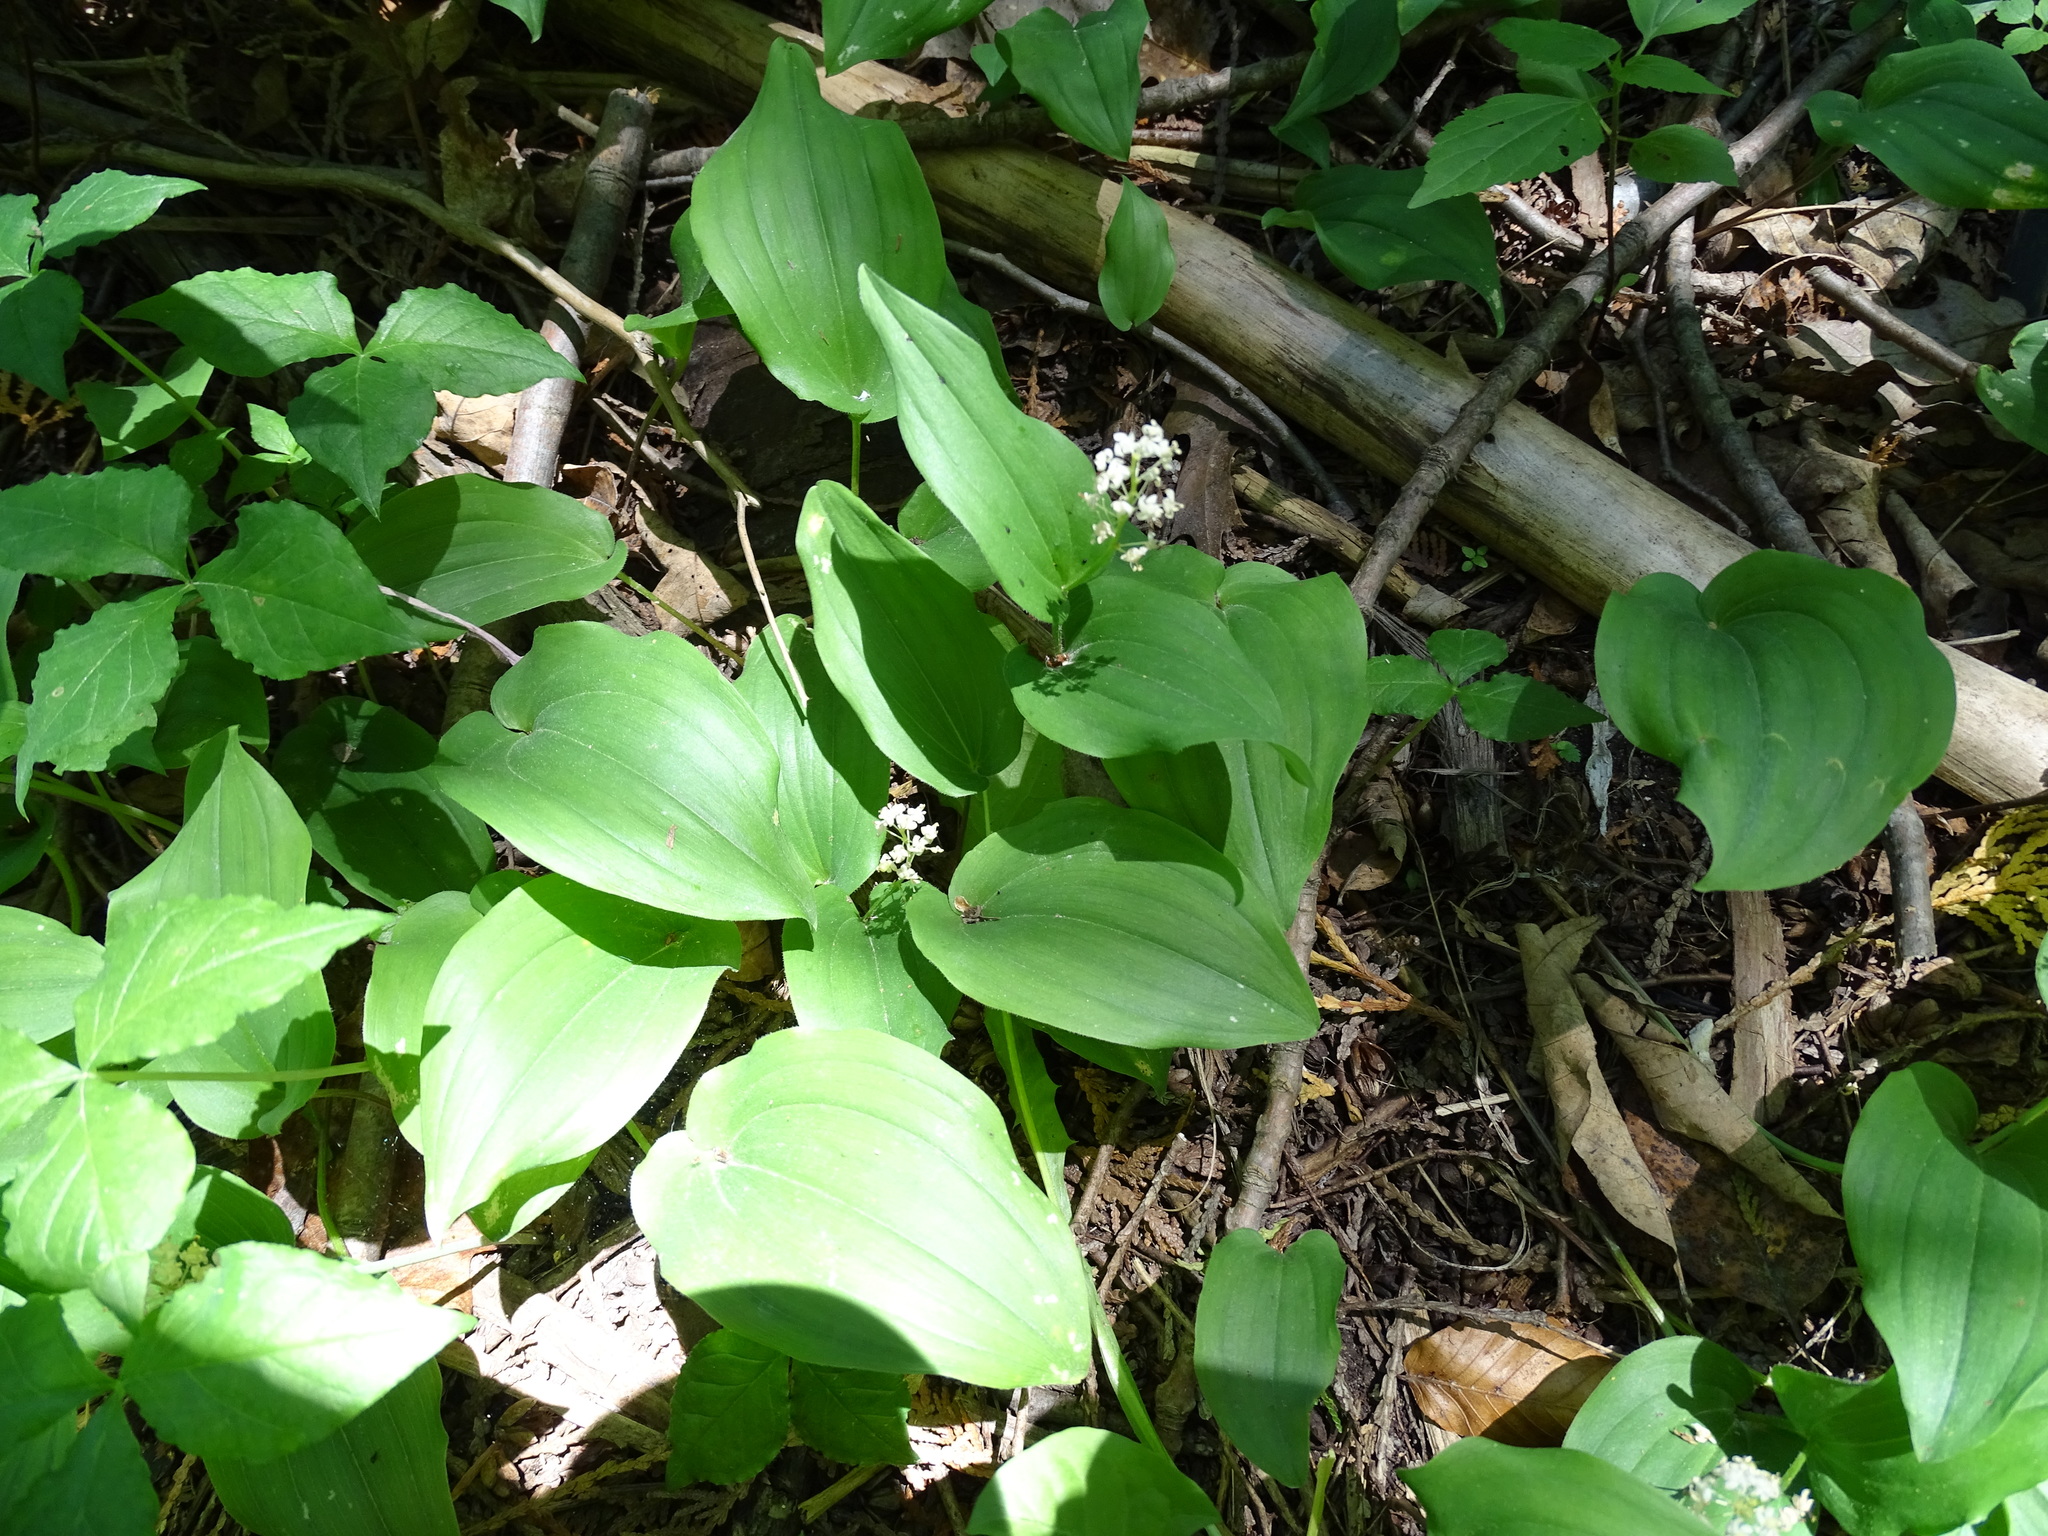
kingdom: Plantae
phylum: Tracheophyta
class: Liliopsida
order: Asparagales
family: Asparagaceae
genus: Maianthemum
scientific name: Maianthemum canadense
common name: False lily-of-the-valley
